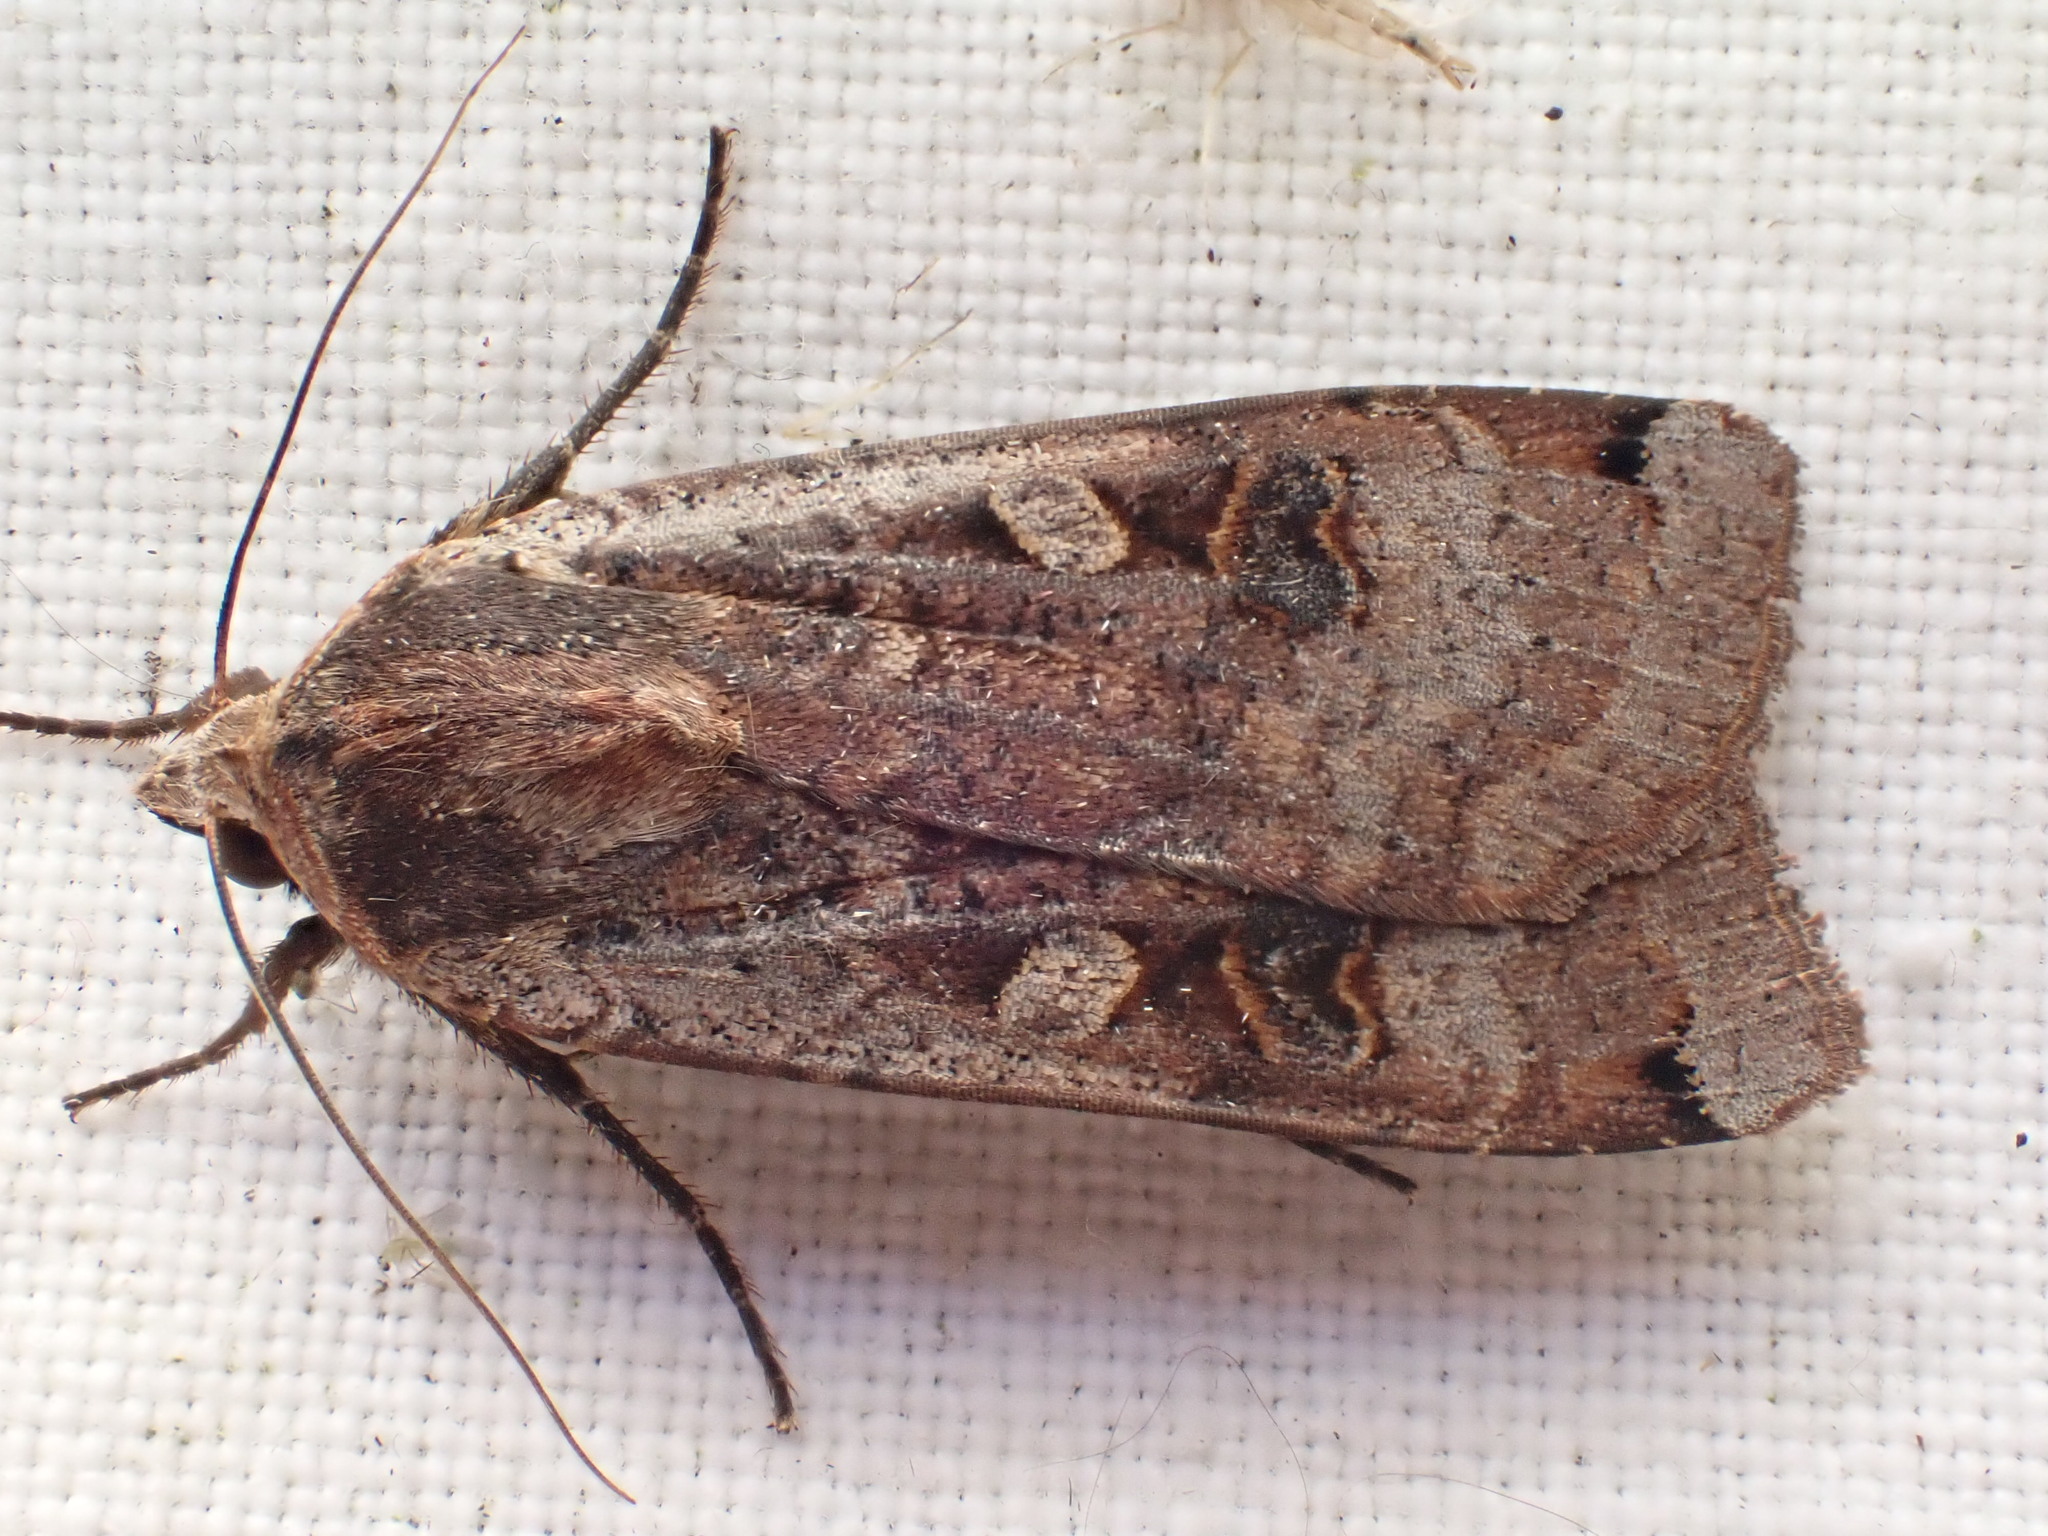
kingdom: Animalia
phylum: Arthropoda
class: Insecta
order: Lepidoptera
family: Noctuidae
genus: Noctua
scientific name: Noctua pronuba
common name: Large yellow underwing
